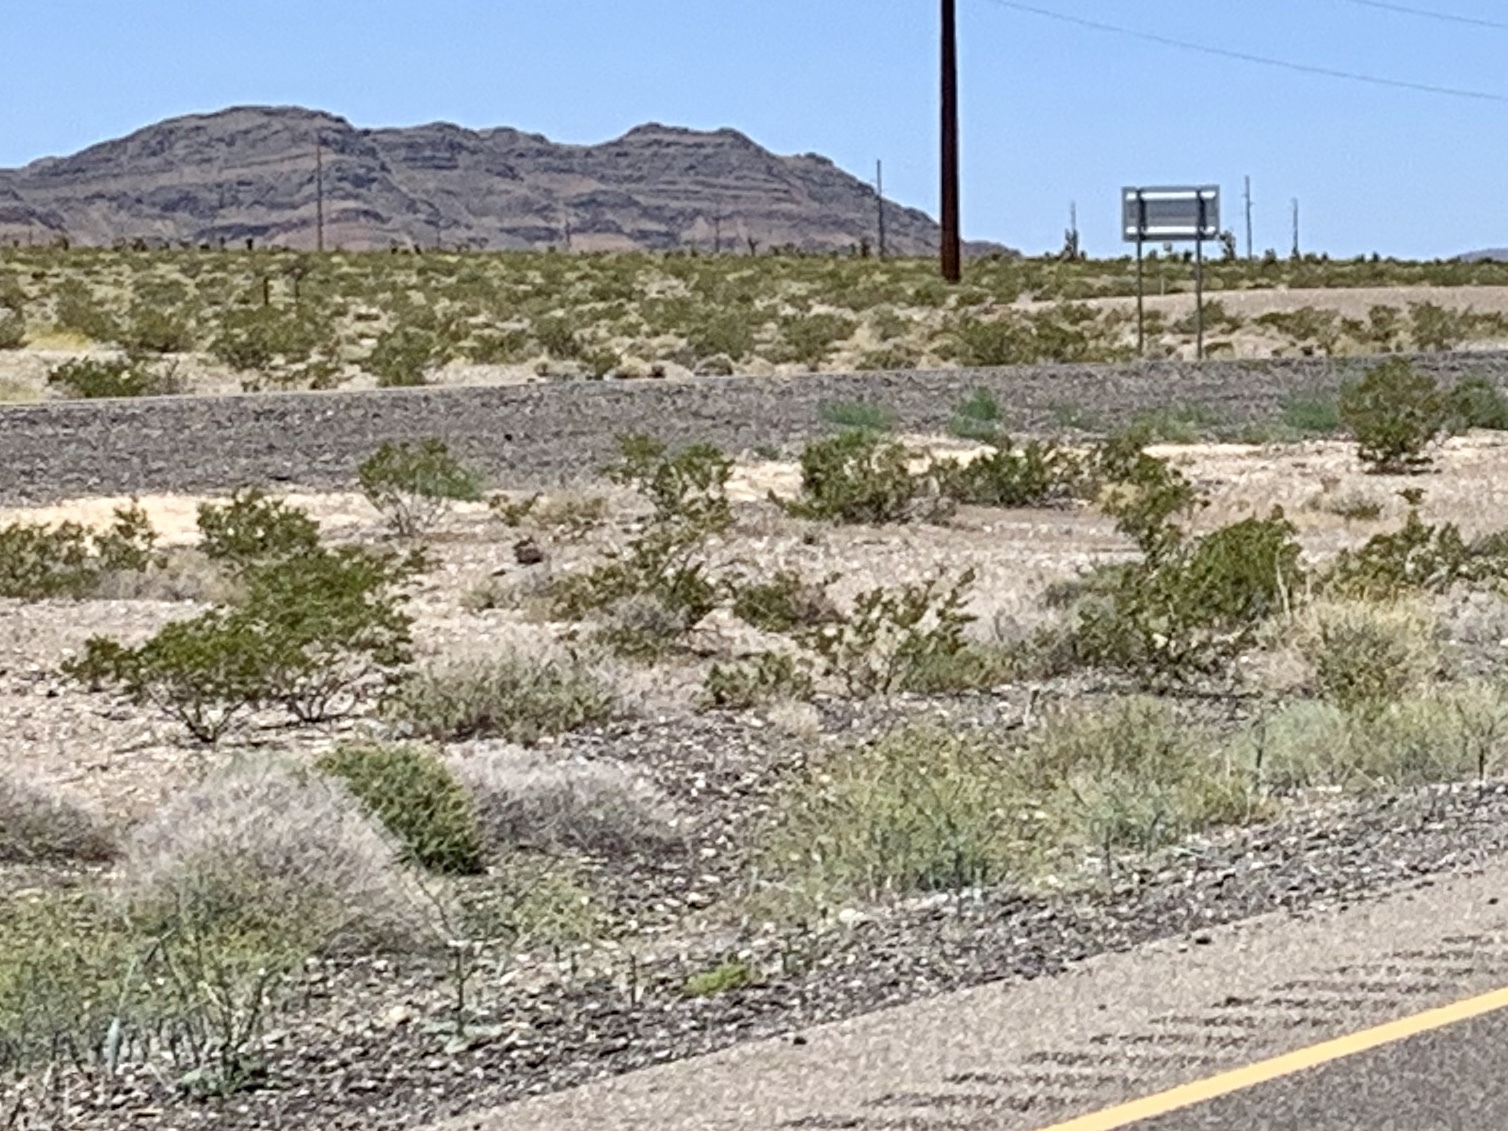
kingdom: Plantae
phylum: Tracheophyta
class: Magnoliopsida
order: Zygophyllales
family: Zygophyllaceae
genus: Larrea
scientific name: Larrea tridentata
